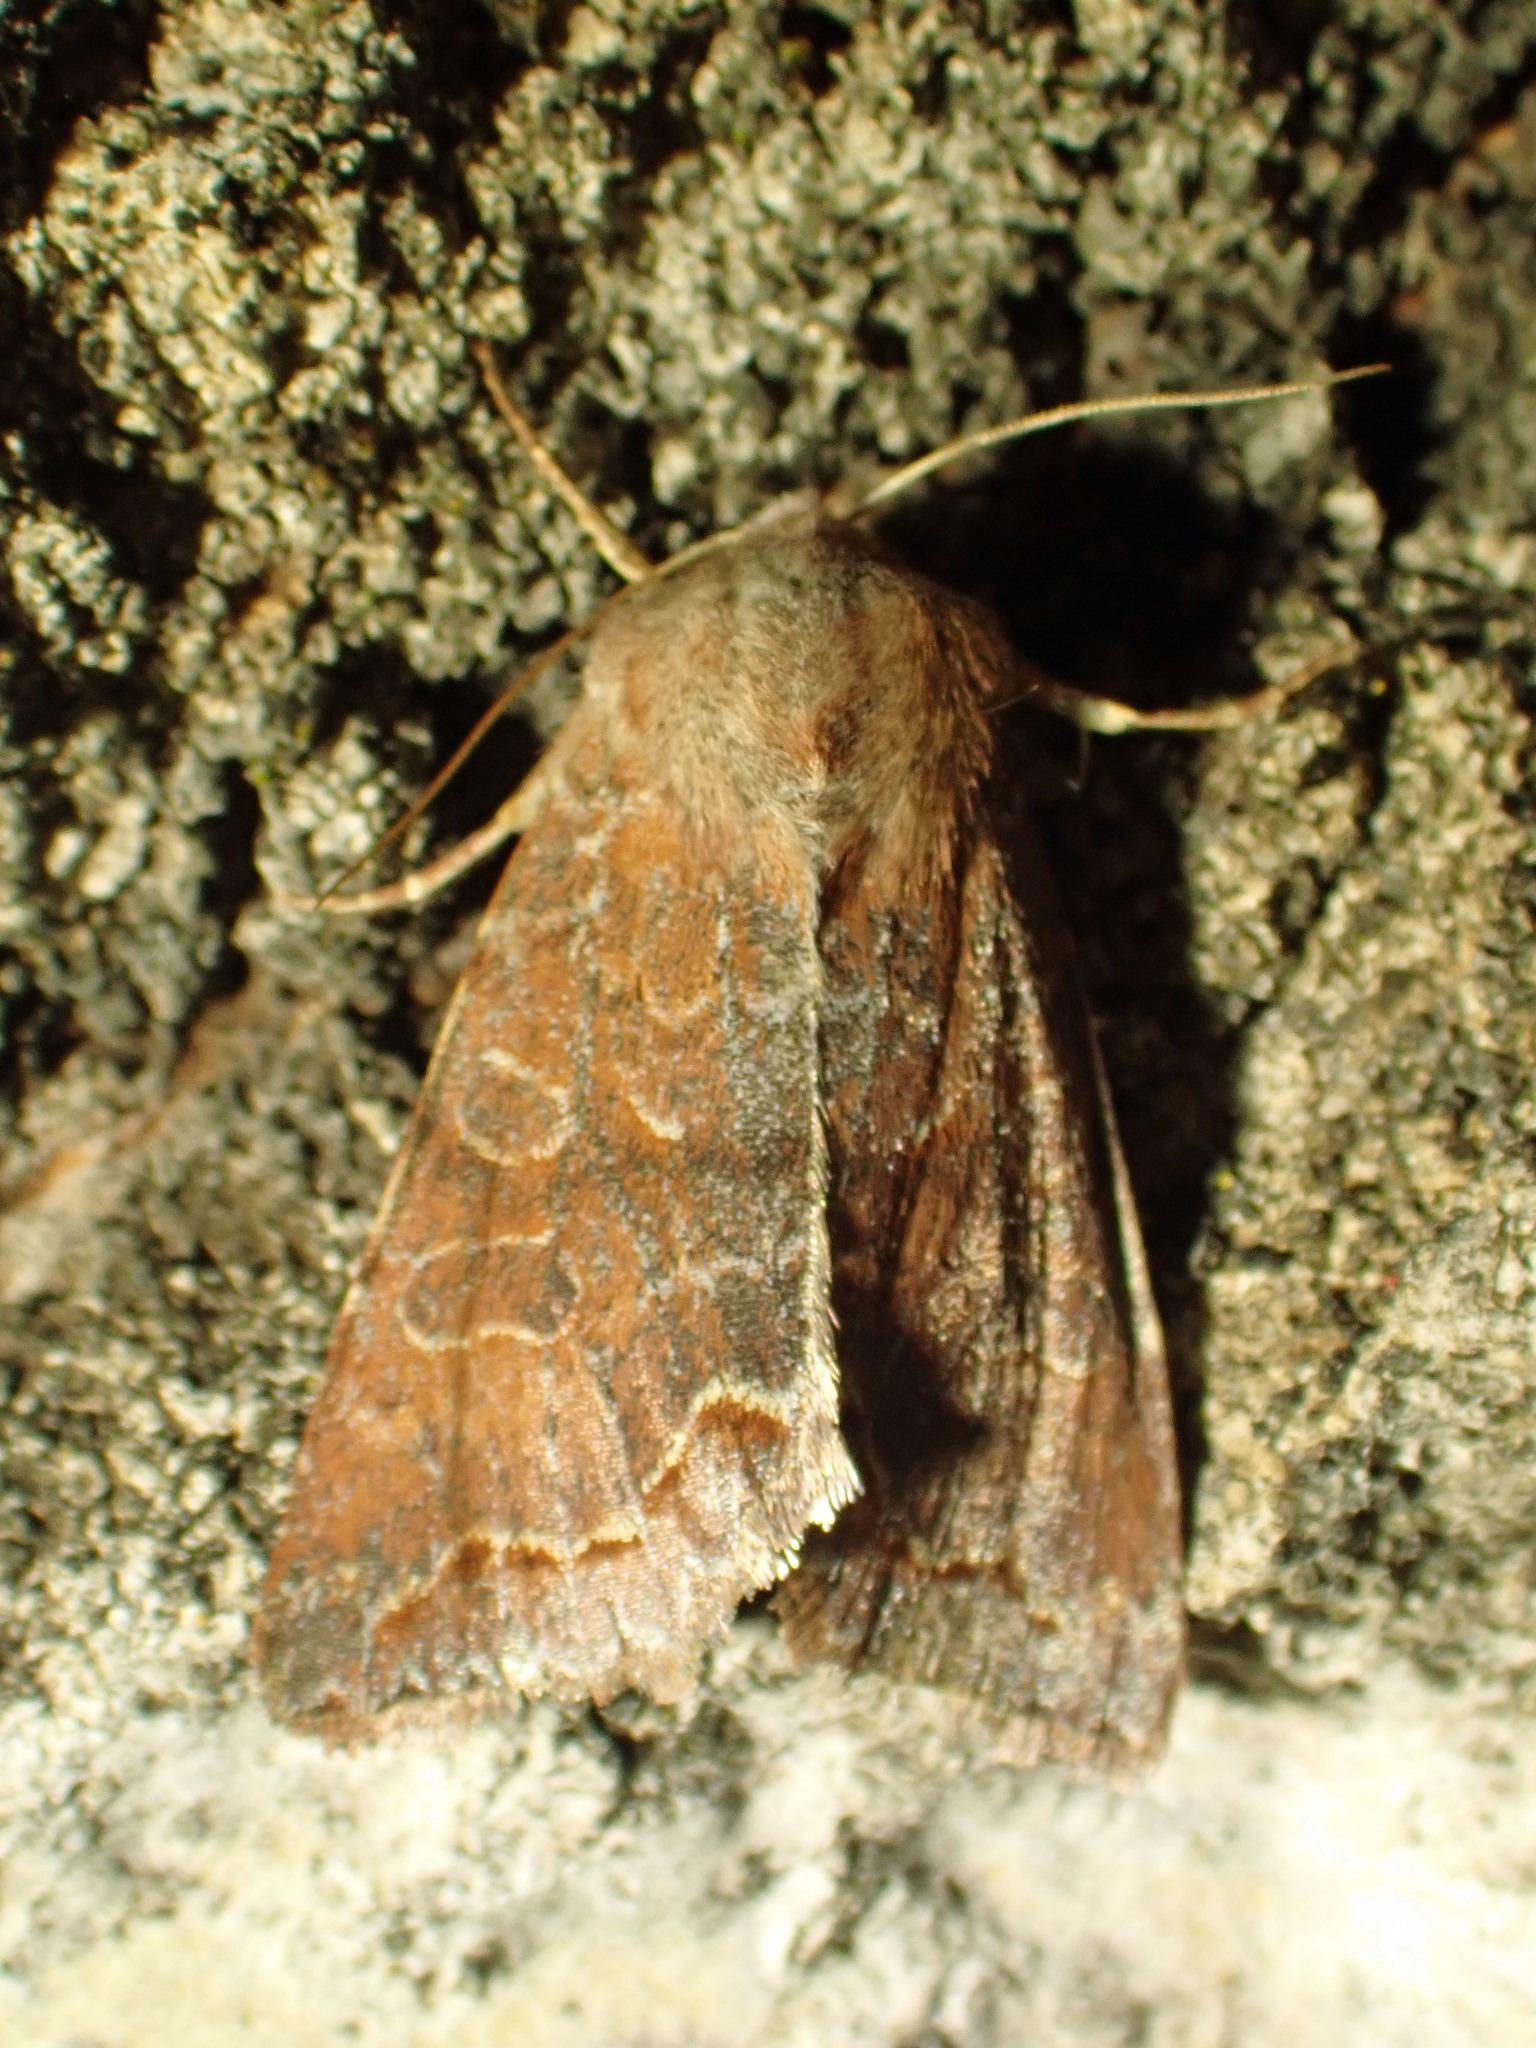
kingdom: Animalia
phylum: Arthropoda
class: Insecta
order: Lepidoptera
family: Noctuidae
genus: Orthosia
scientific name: Orthosia revicta
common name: Rusty whitesided caterpillar
